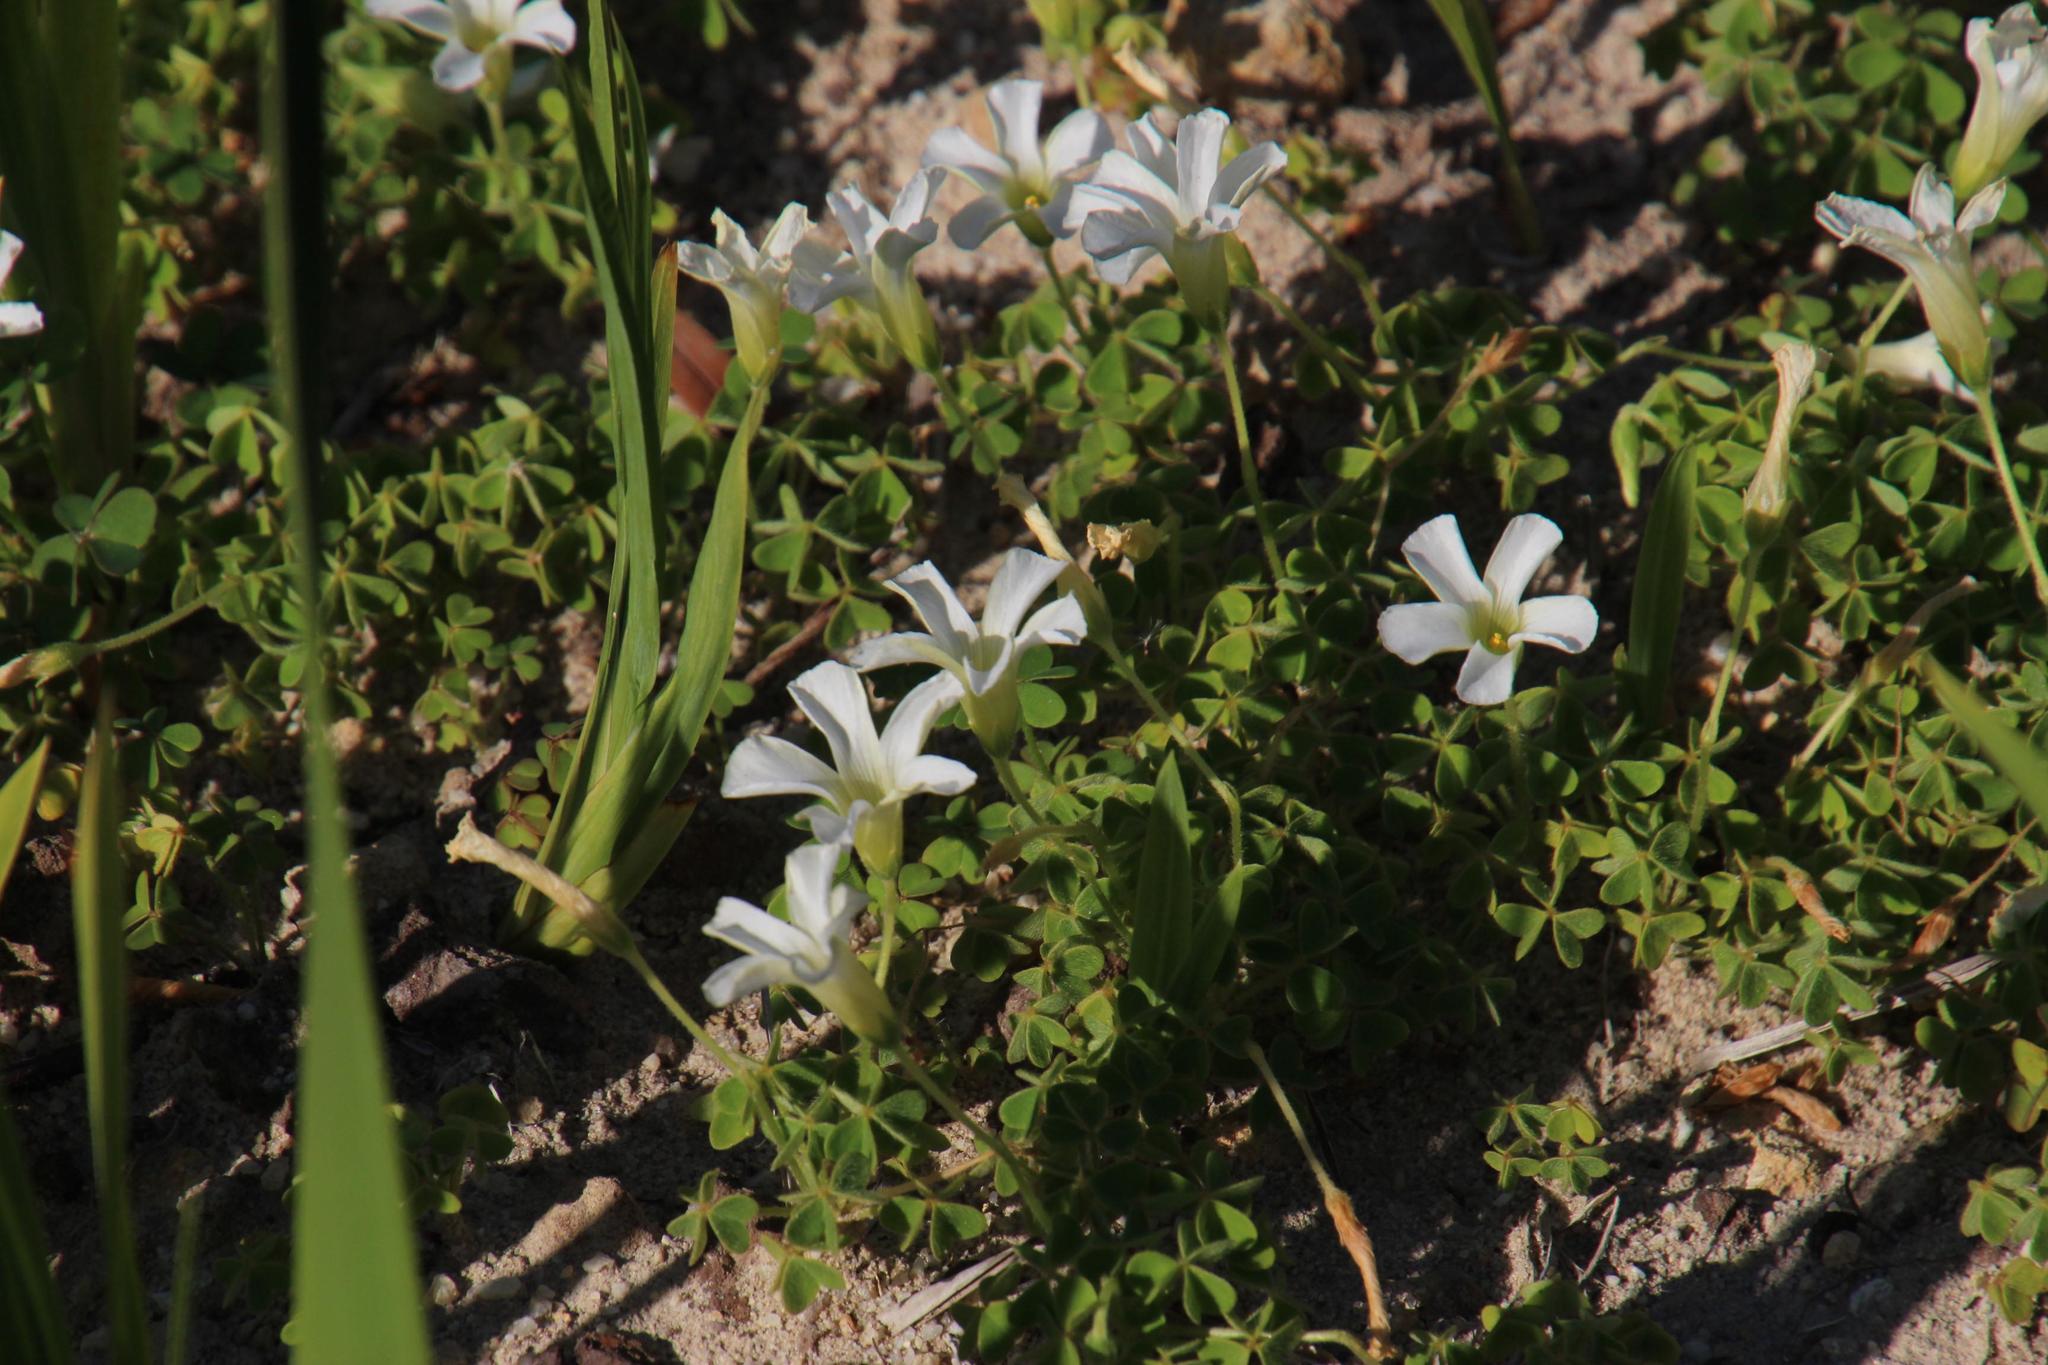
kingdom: Plantae
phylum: Tracheophyta
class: Magnoliopsida
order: Oxalidales
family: Oxalidaceae
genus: Oxalis
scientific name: Oxalis lanata
